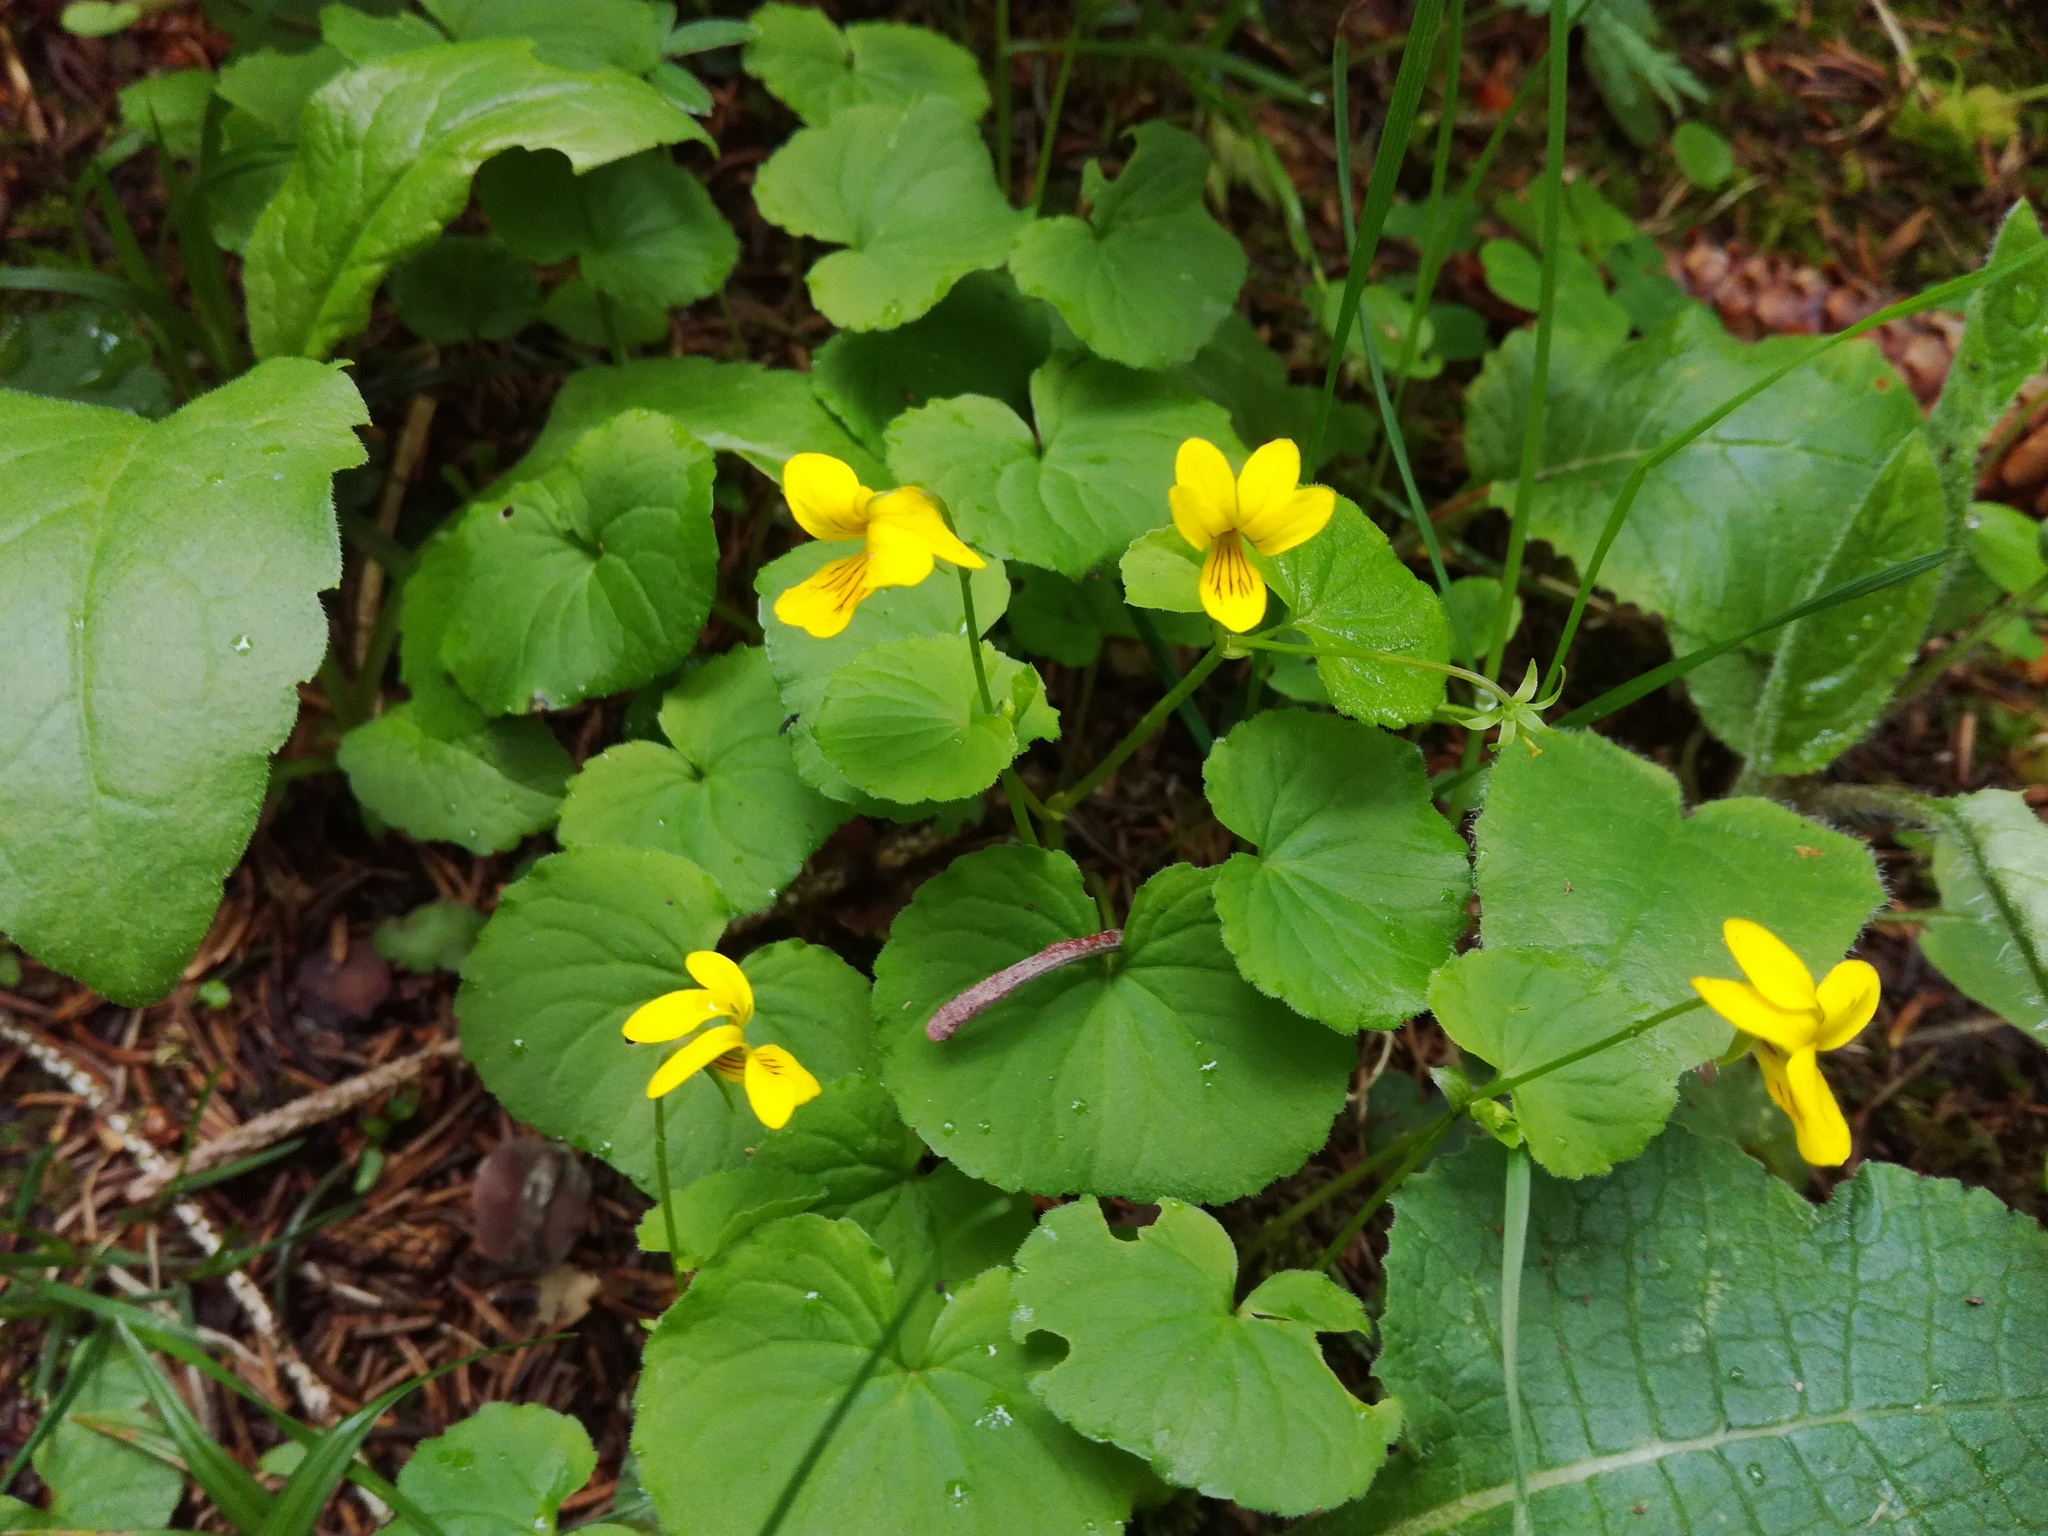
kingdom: Plantae
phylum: Tracheophyta
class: Magnoliopsida
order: Malpighiales
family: Violaceae
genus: Viola
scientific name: Viola biflora
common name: Alpine yellow violet
